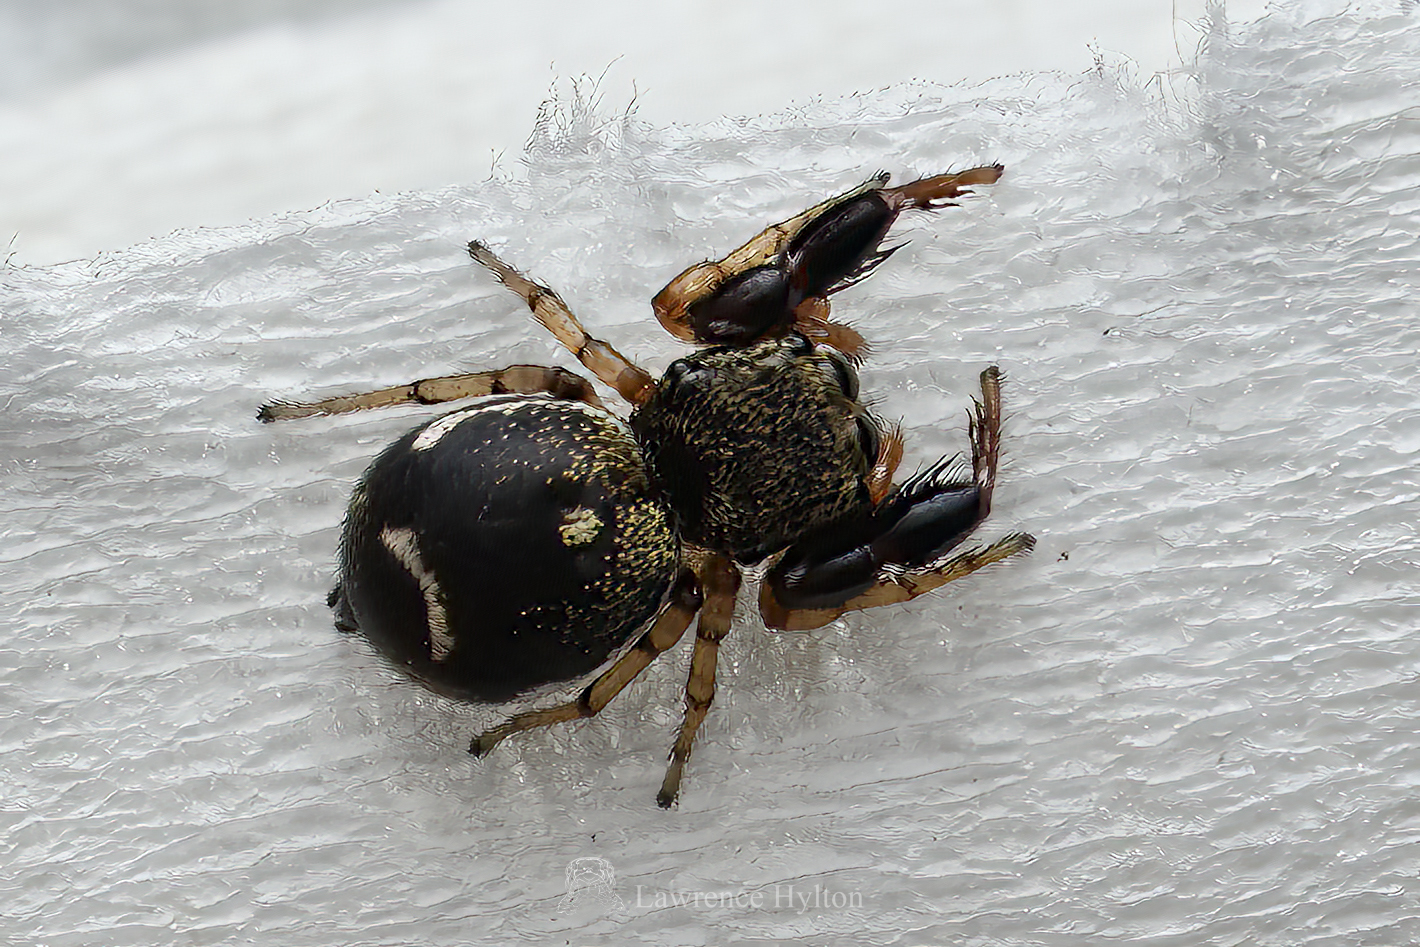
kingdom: Animalia
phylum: Arthropoda
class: Arachnida
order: Araneae
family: Salticidae
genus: Harmochirus
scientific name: Harmochirus insulanus
